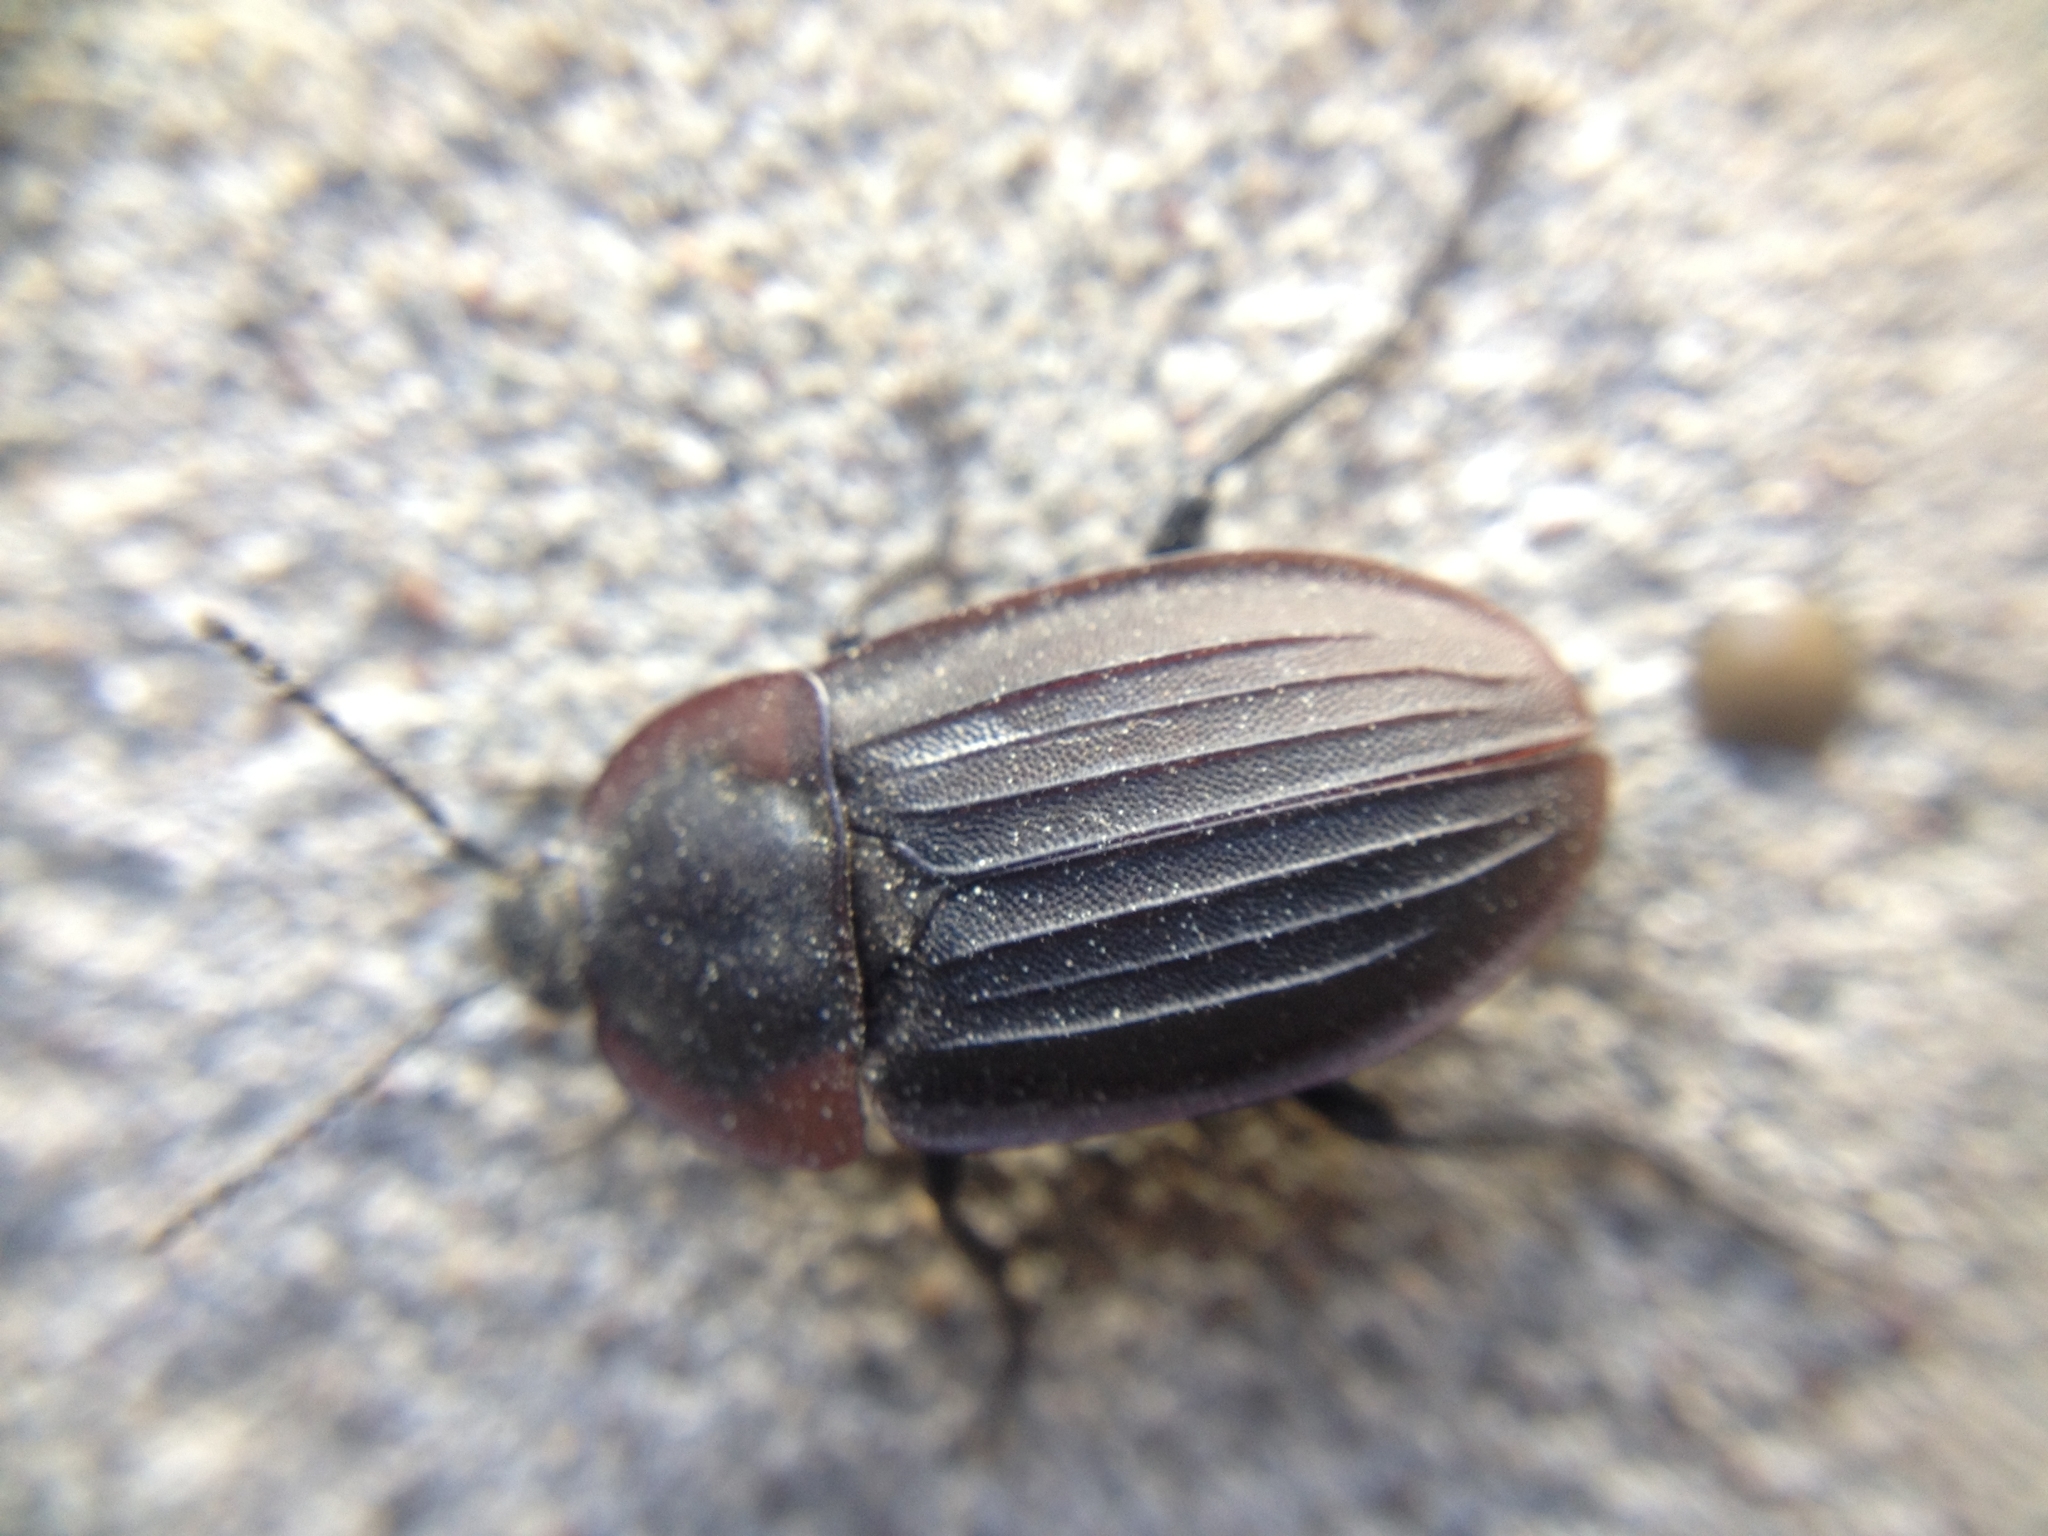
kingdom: Animalia
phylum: Arthropoda
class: Insecta
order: Coleoptera
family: Staphylinidae
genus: Silpha
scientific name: Silpha carinata
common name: Silphid beetle
